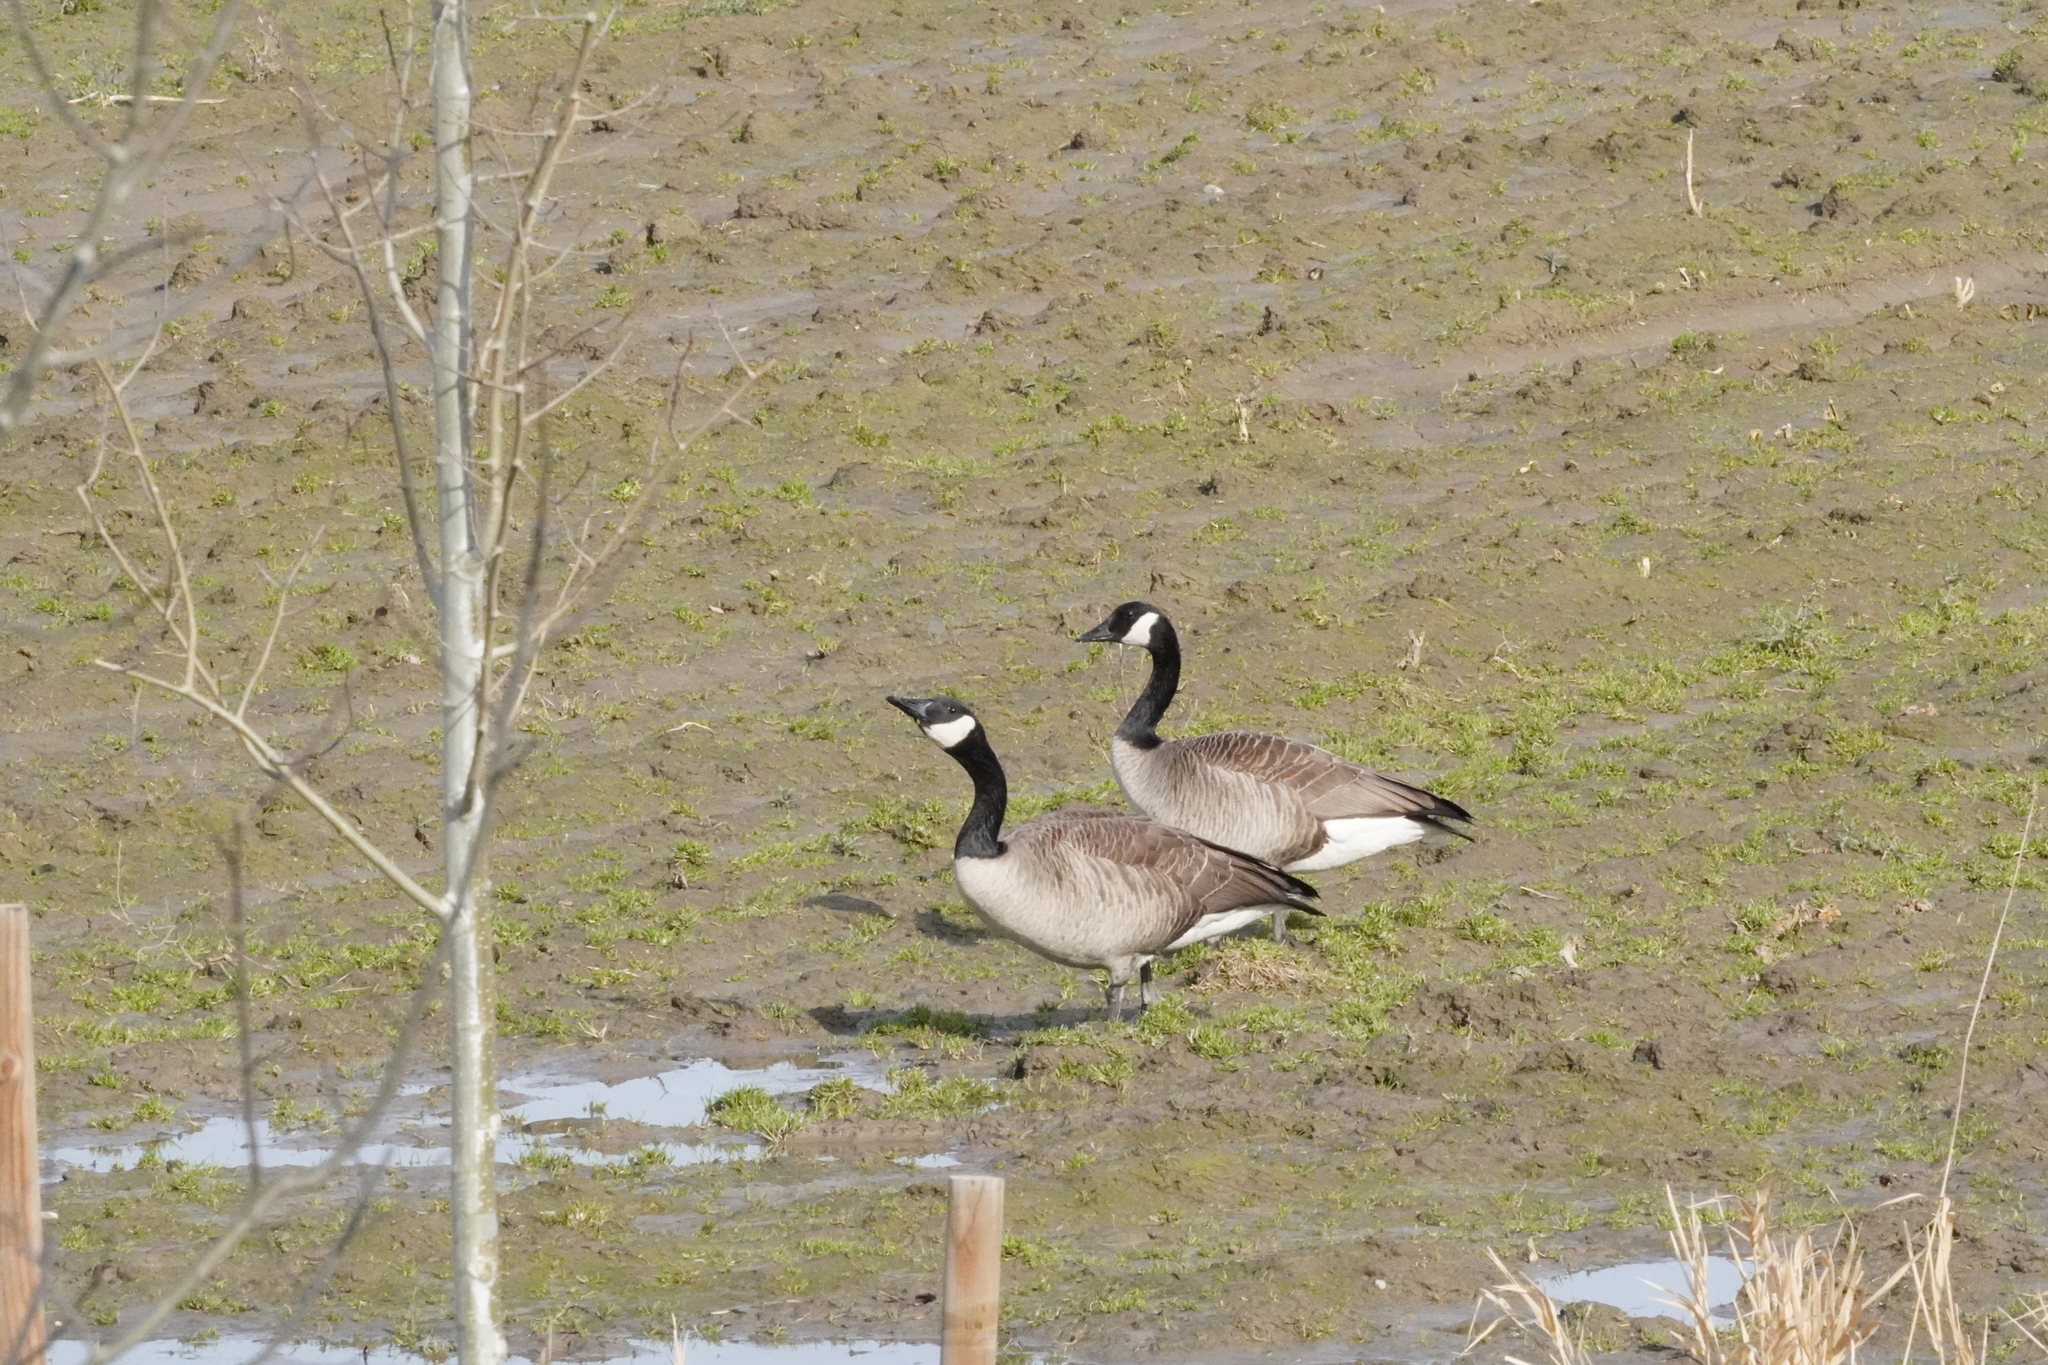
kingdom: Animalia
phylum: Chordata
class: Aves
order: Anseriformes
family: Anatidae
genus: Branta
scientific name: Branta canadensis
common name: Canada goose
